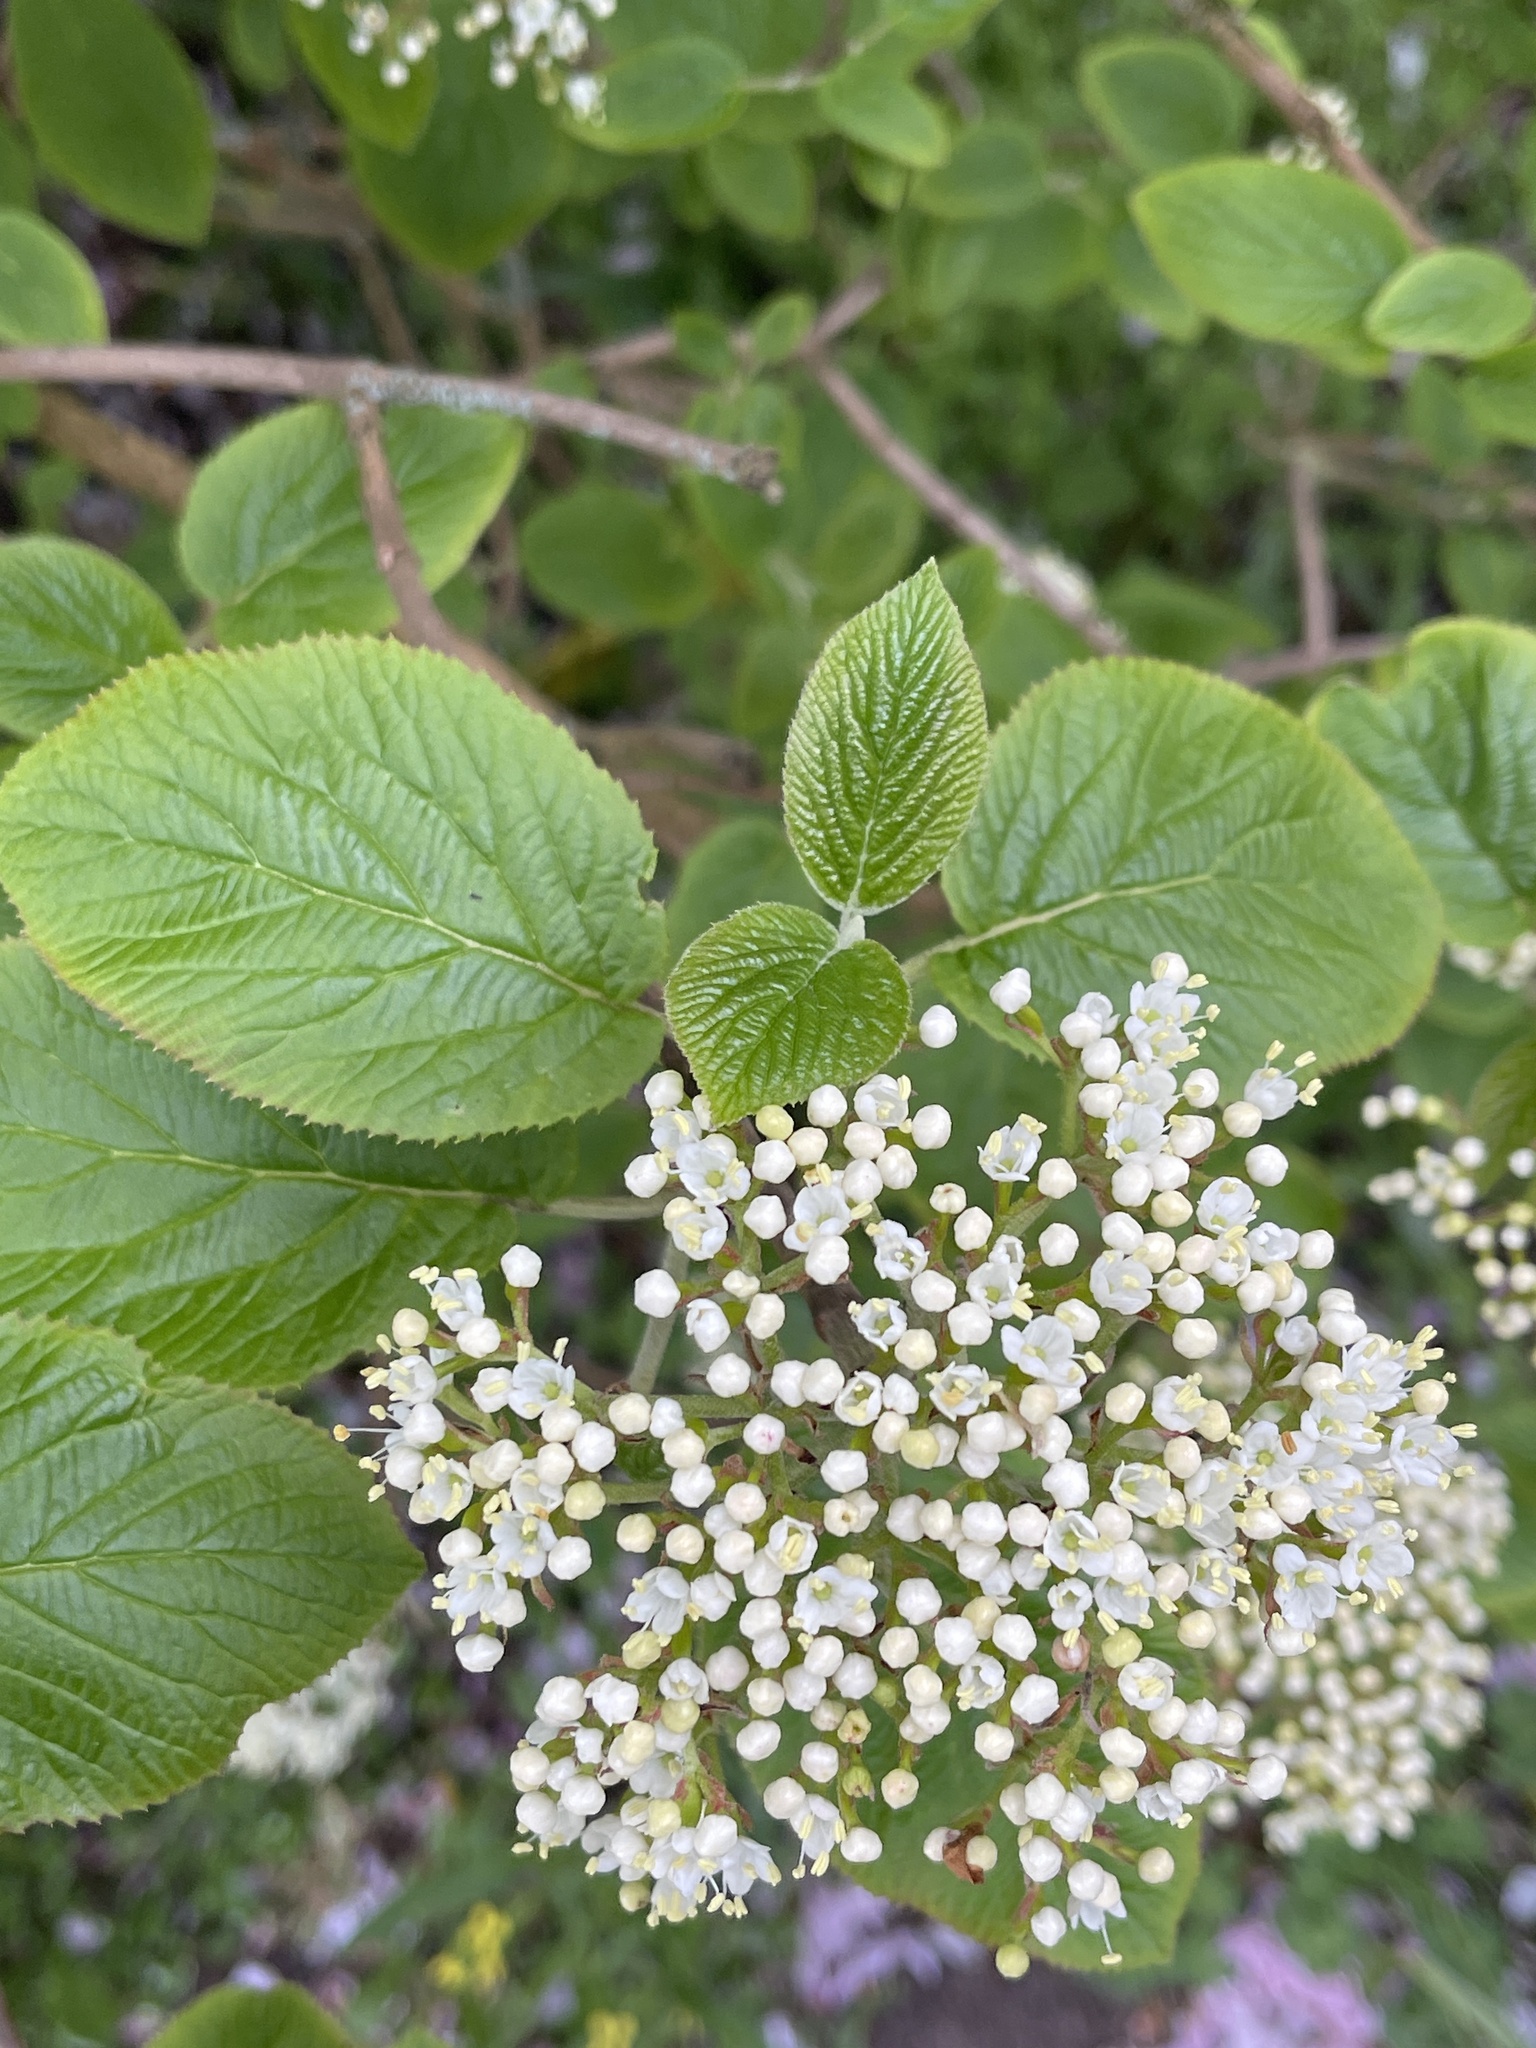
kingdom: Plantae
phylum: Tracheophyta
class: Magnoliopsida
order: Dipsacales
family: Viburnaceae
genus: Viburnum
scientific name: Viburnum lantana
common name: Wayfaring tree
